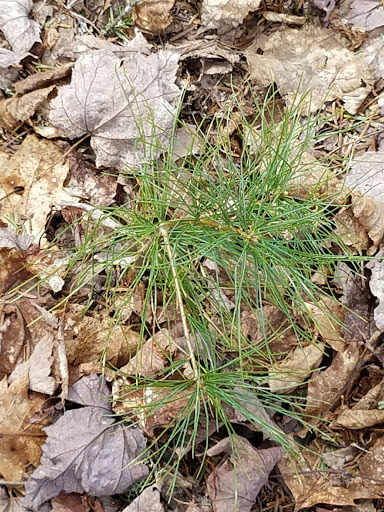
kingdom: Plantae
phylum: Tracheophyta
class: Pinopsida
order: Pinales
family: Pinaceae
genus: Pinus
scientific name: Pinus strobus
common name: Weymouth pine
